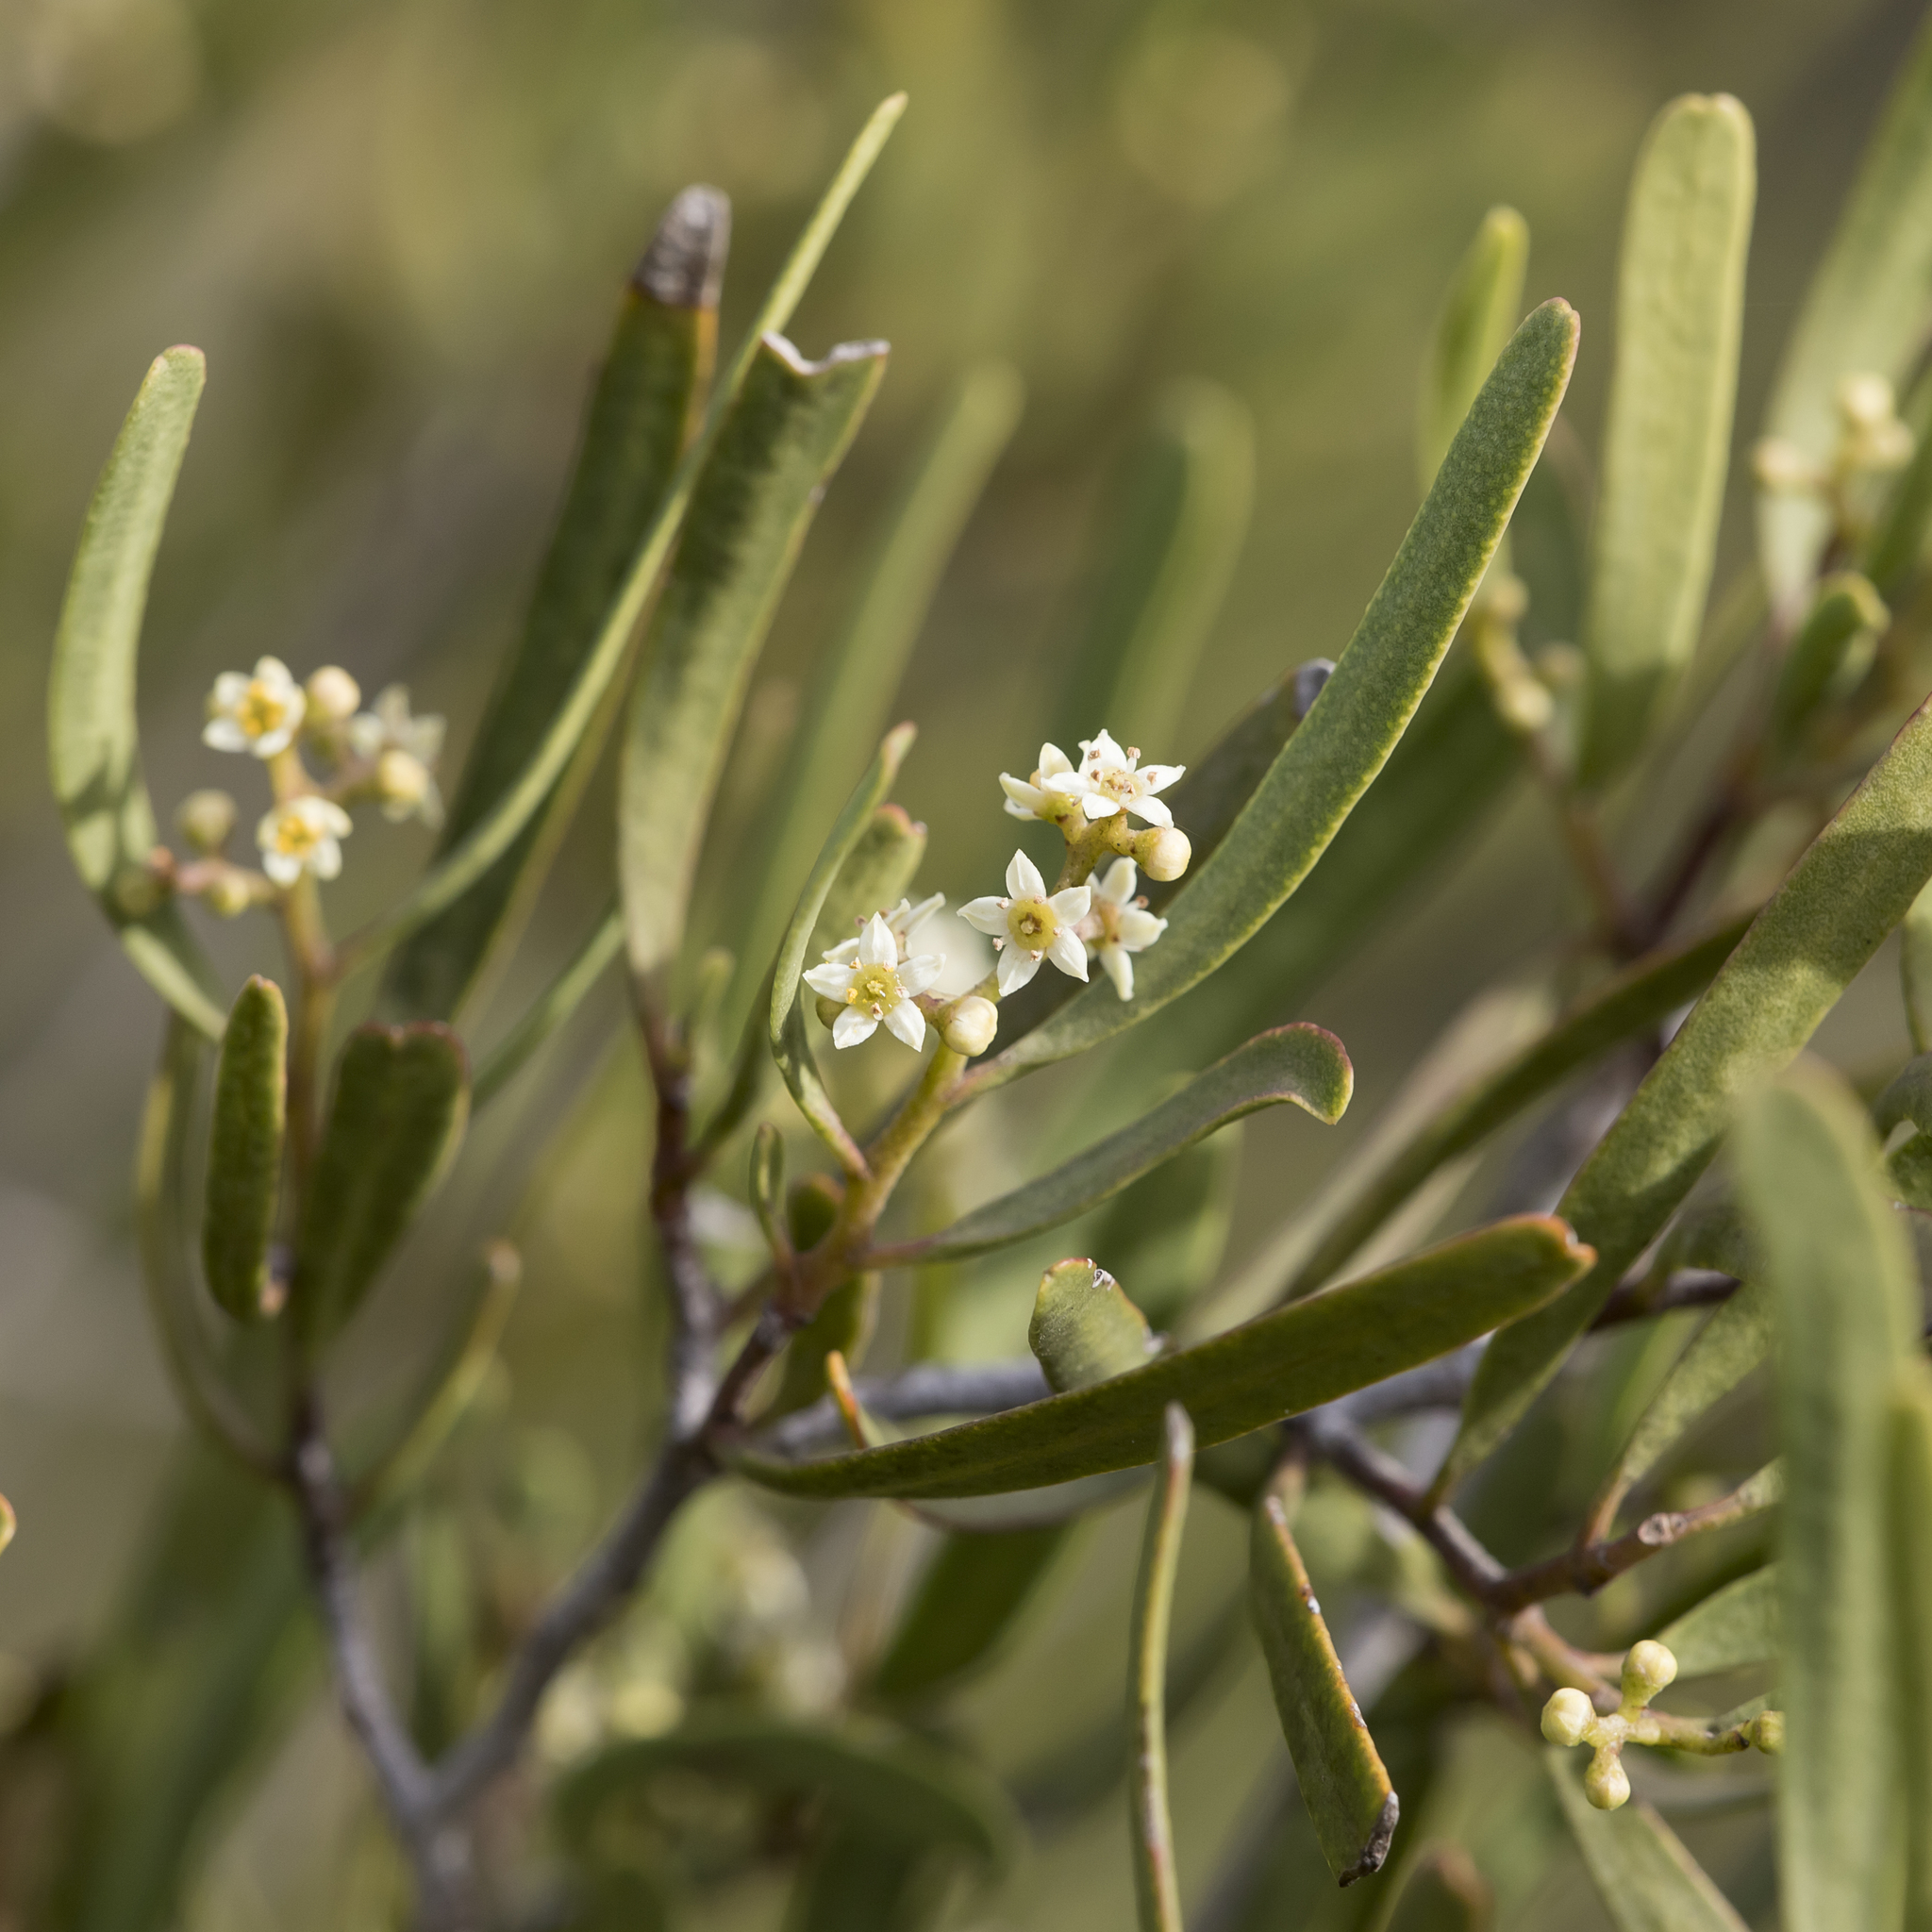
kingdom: Plantae
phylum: Tracheophyta
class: Magnoliopsida
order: Sapindales
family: Rutaceae
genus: Geijera
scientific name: Geijera linearifolia
